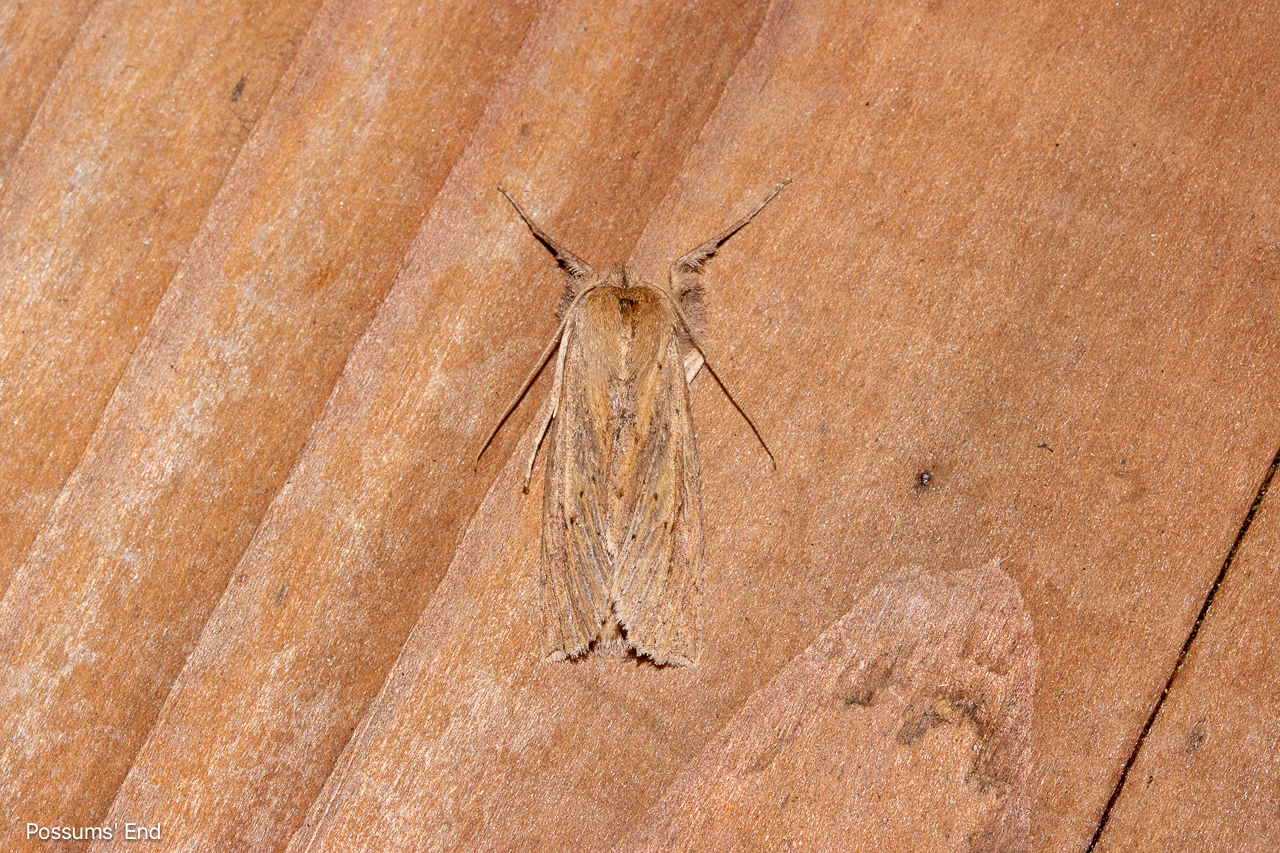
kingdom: Animalia
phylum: Arthropoda
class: Insecta
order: Lepidoptera
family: Geometridae
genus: Declana
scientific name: Declana leptomera
